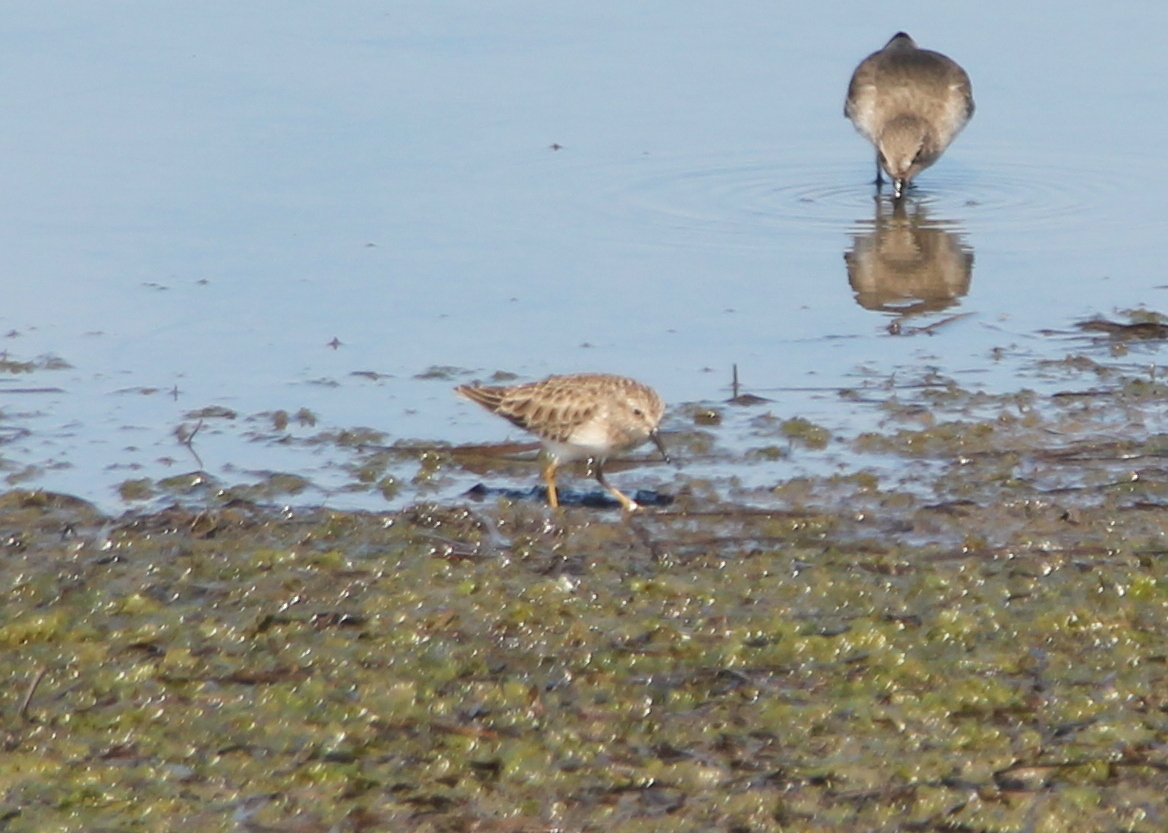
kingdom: Animalia
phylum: Chordata
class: Aves
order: Charadriiformes
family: Scolopacidae
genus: Calidris
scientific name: Calidris minutilla
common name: Least sandpiper
